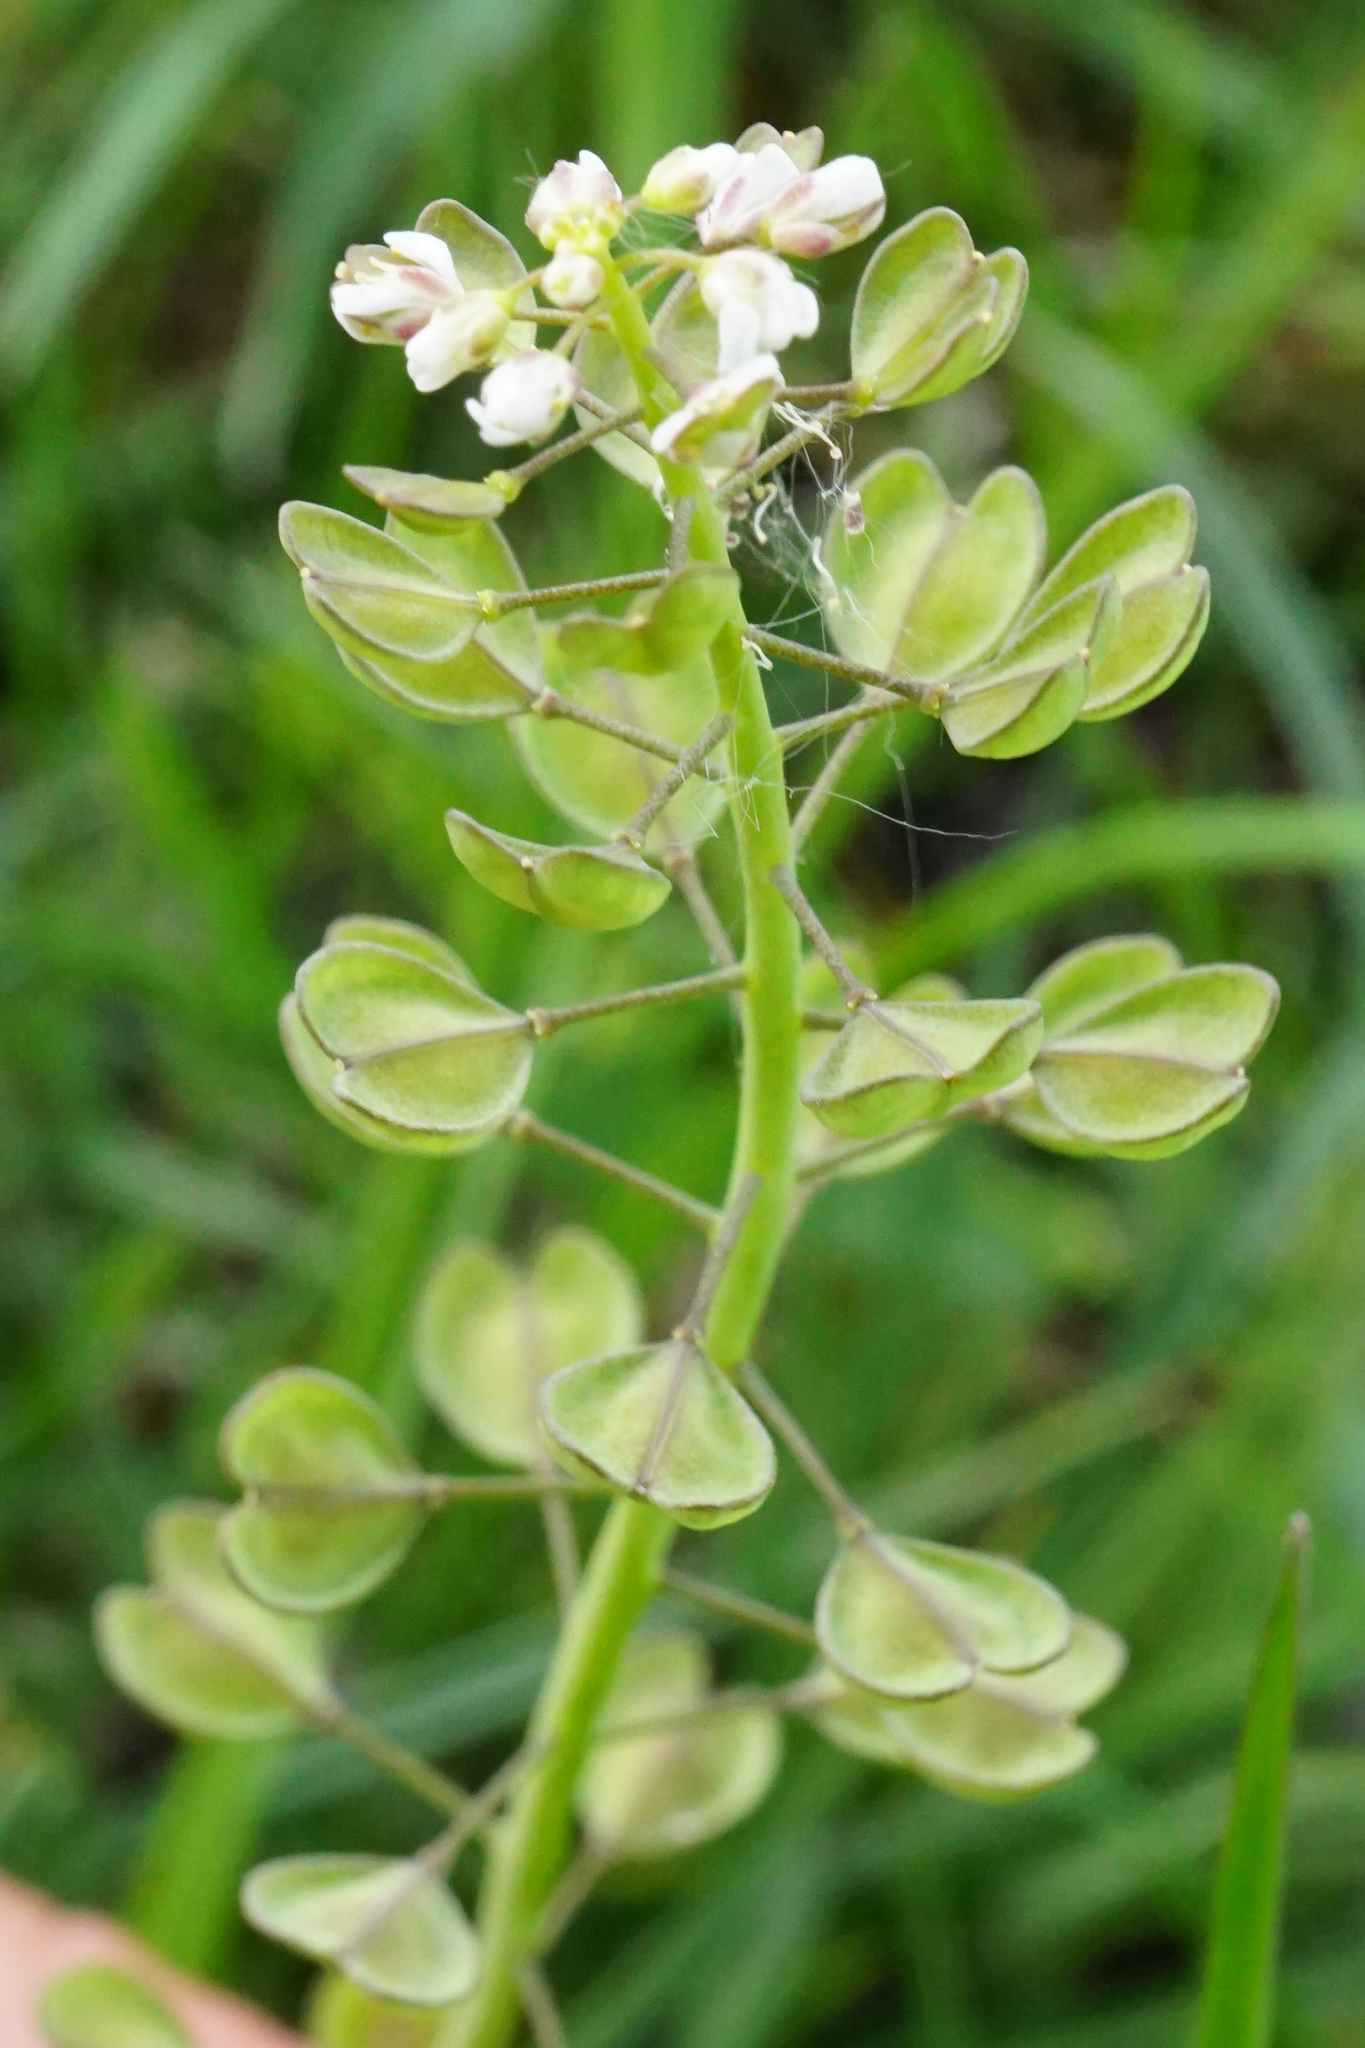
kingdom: Plantae
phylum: Tracheophyta
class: Magnoliopsida
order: Brassicales
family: Brassicaceae
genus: Noccaea
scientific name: Noccaea perfoliata
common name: Perfoliate pennycress
